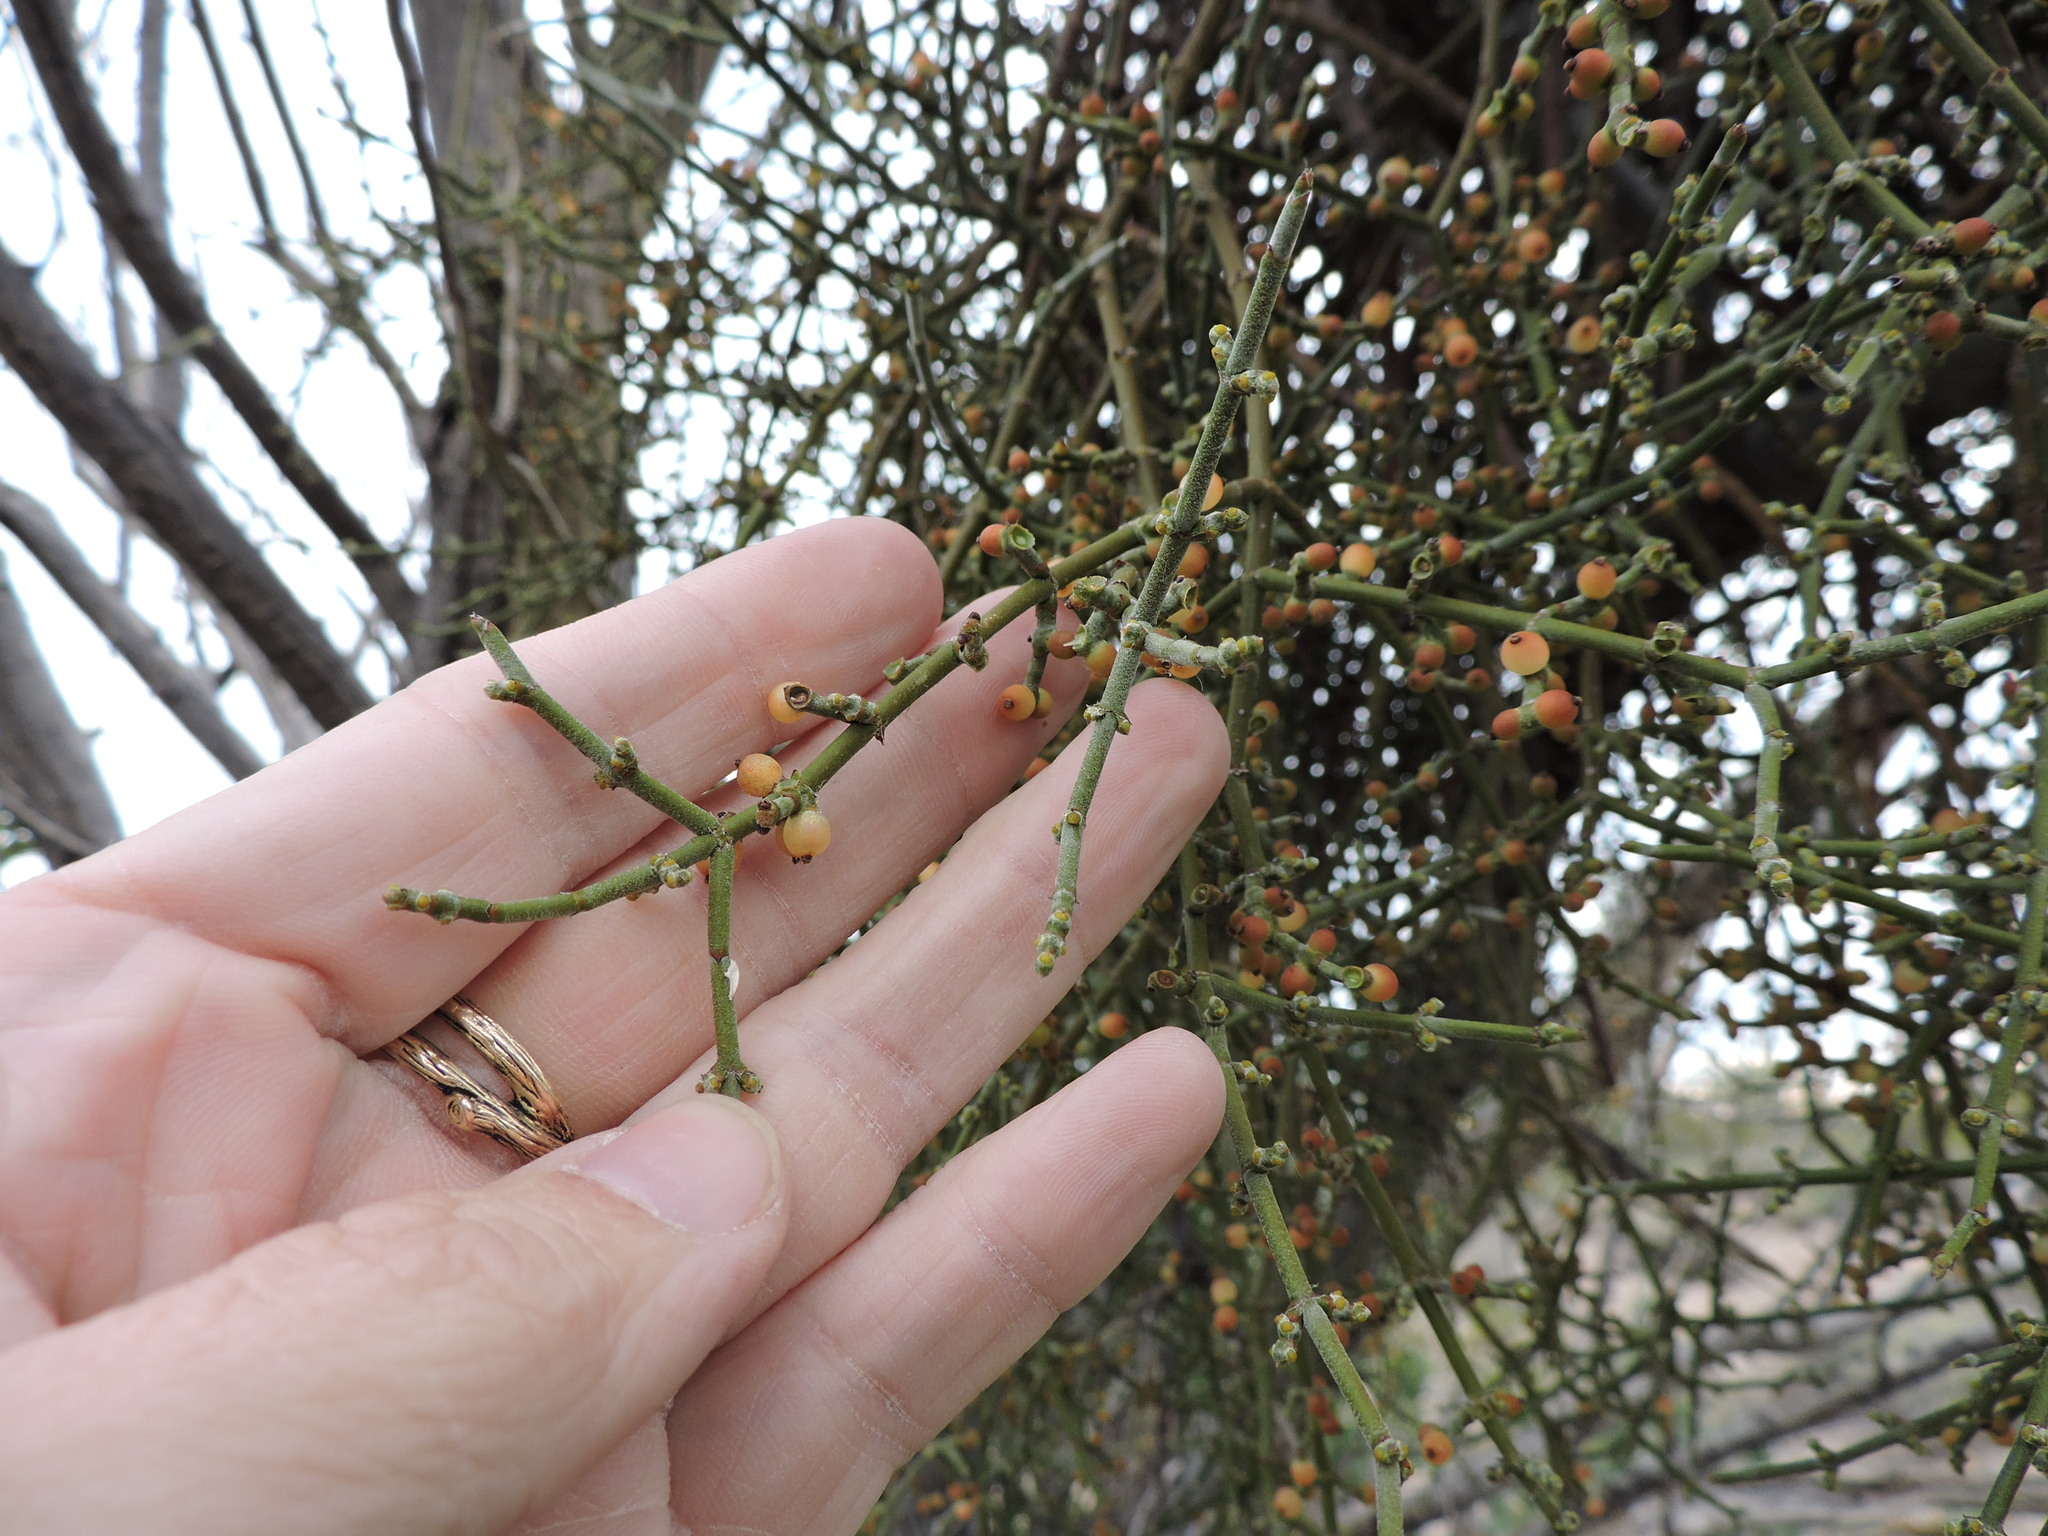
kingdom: Plantae
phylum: Tracheophyta
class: Magnoliopsida
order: Santalales
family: Viscaceae
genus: Phoradendron
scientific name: Phoradendron californicum
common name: Acacia mistletoe
